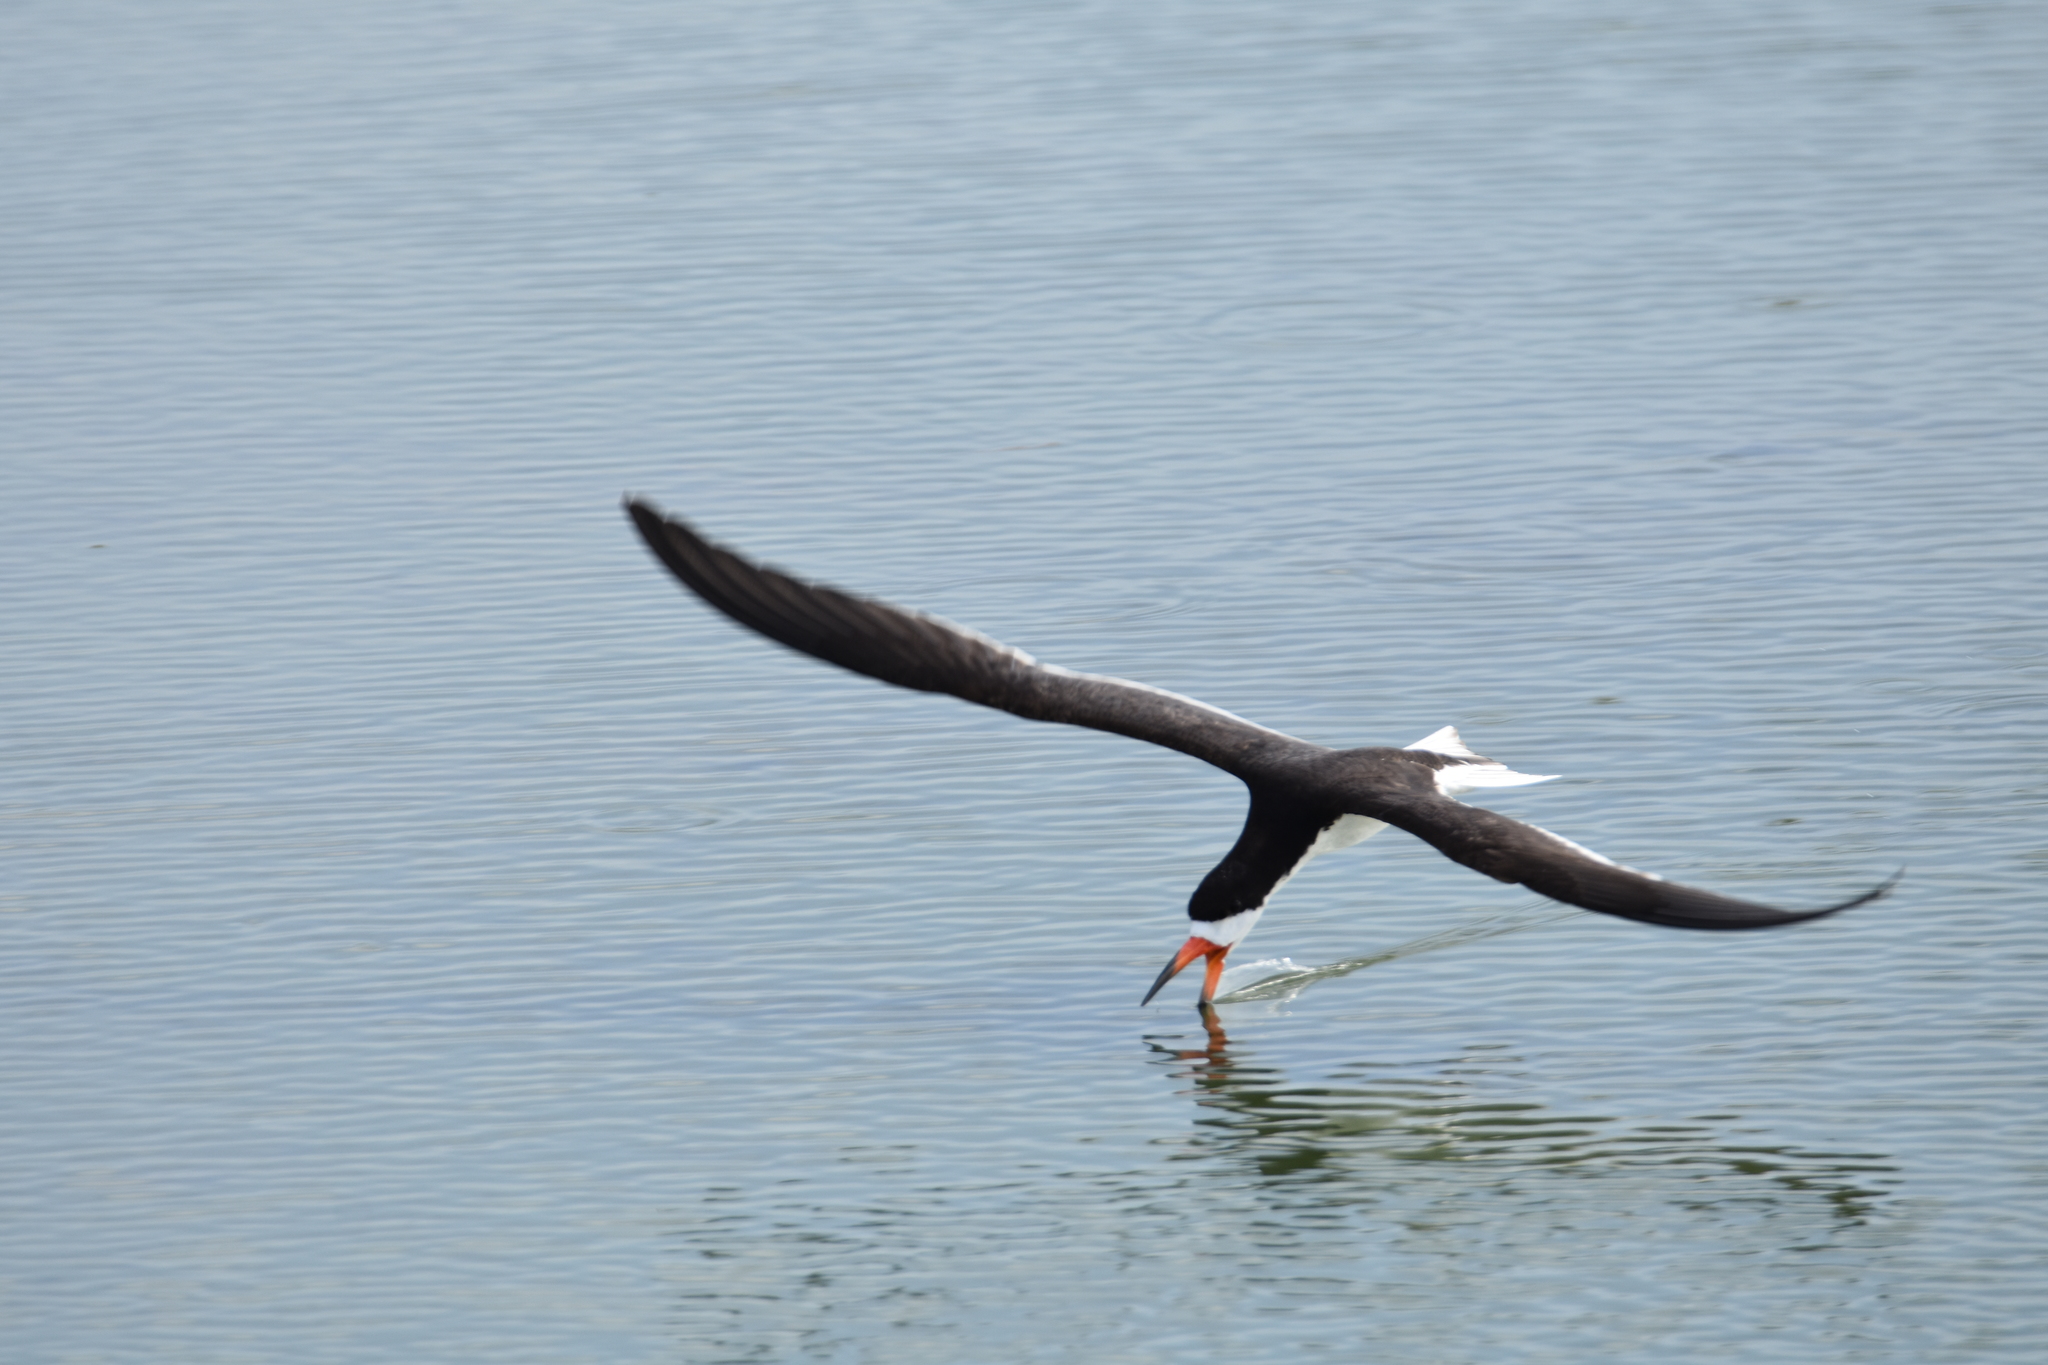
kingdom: Animalia
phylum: Chordata
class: Aves
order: Charadriiformes
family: Laridae
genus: Rynchops
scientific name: Rynchops niger
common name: Black skimmer
